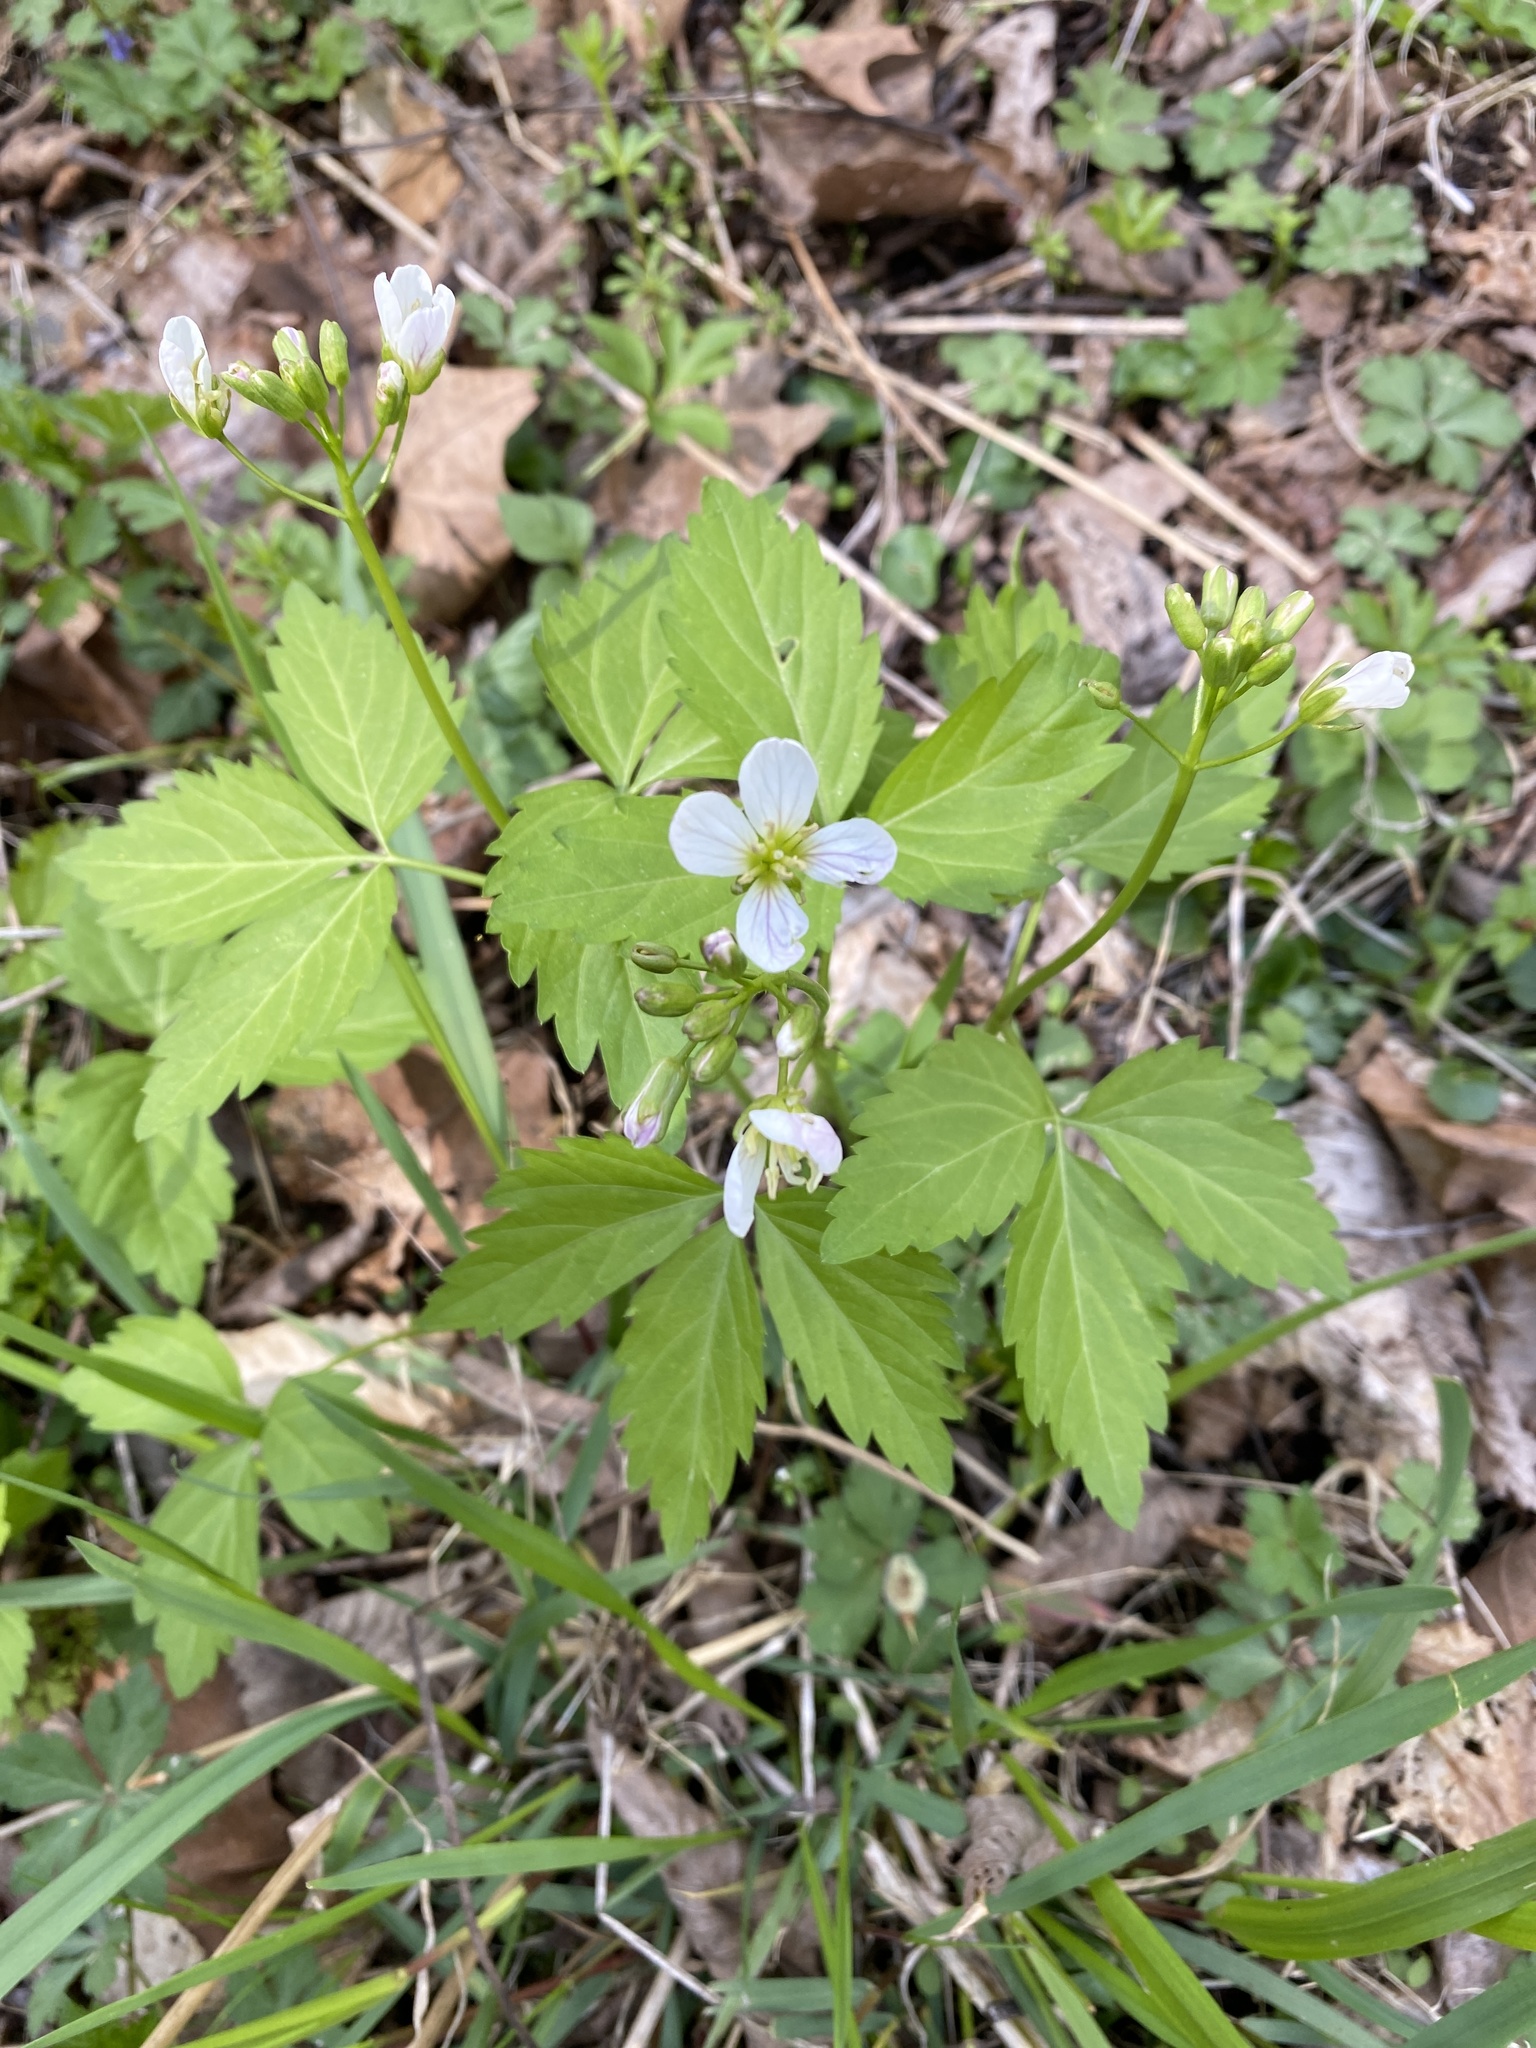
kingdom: Plantae
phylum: Tracheophyta
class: Magnoliopsida
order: Brassicales
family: Brassicaceae
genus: Cardamine
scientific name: Cardamine diphylla
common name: Broad-leaved toothwort
